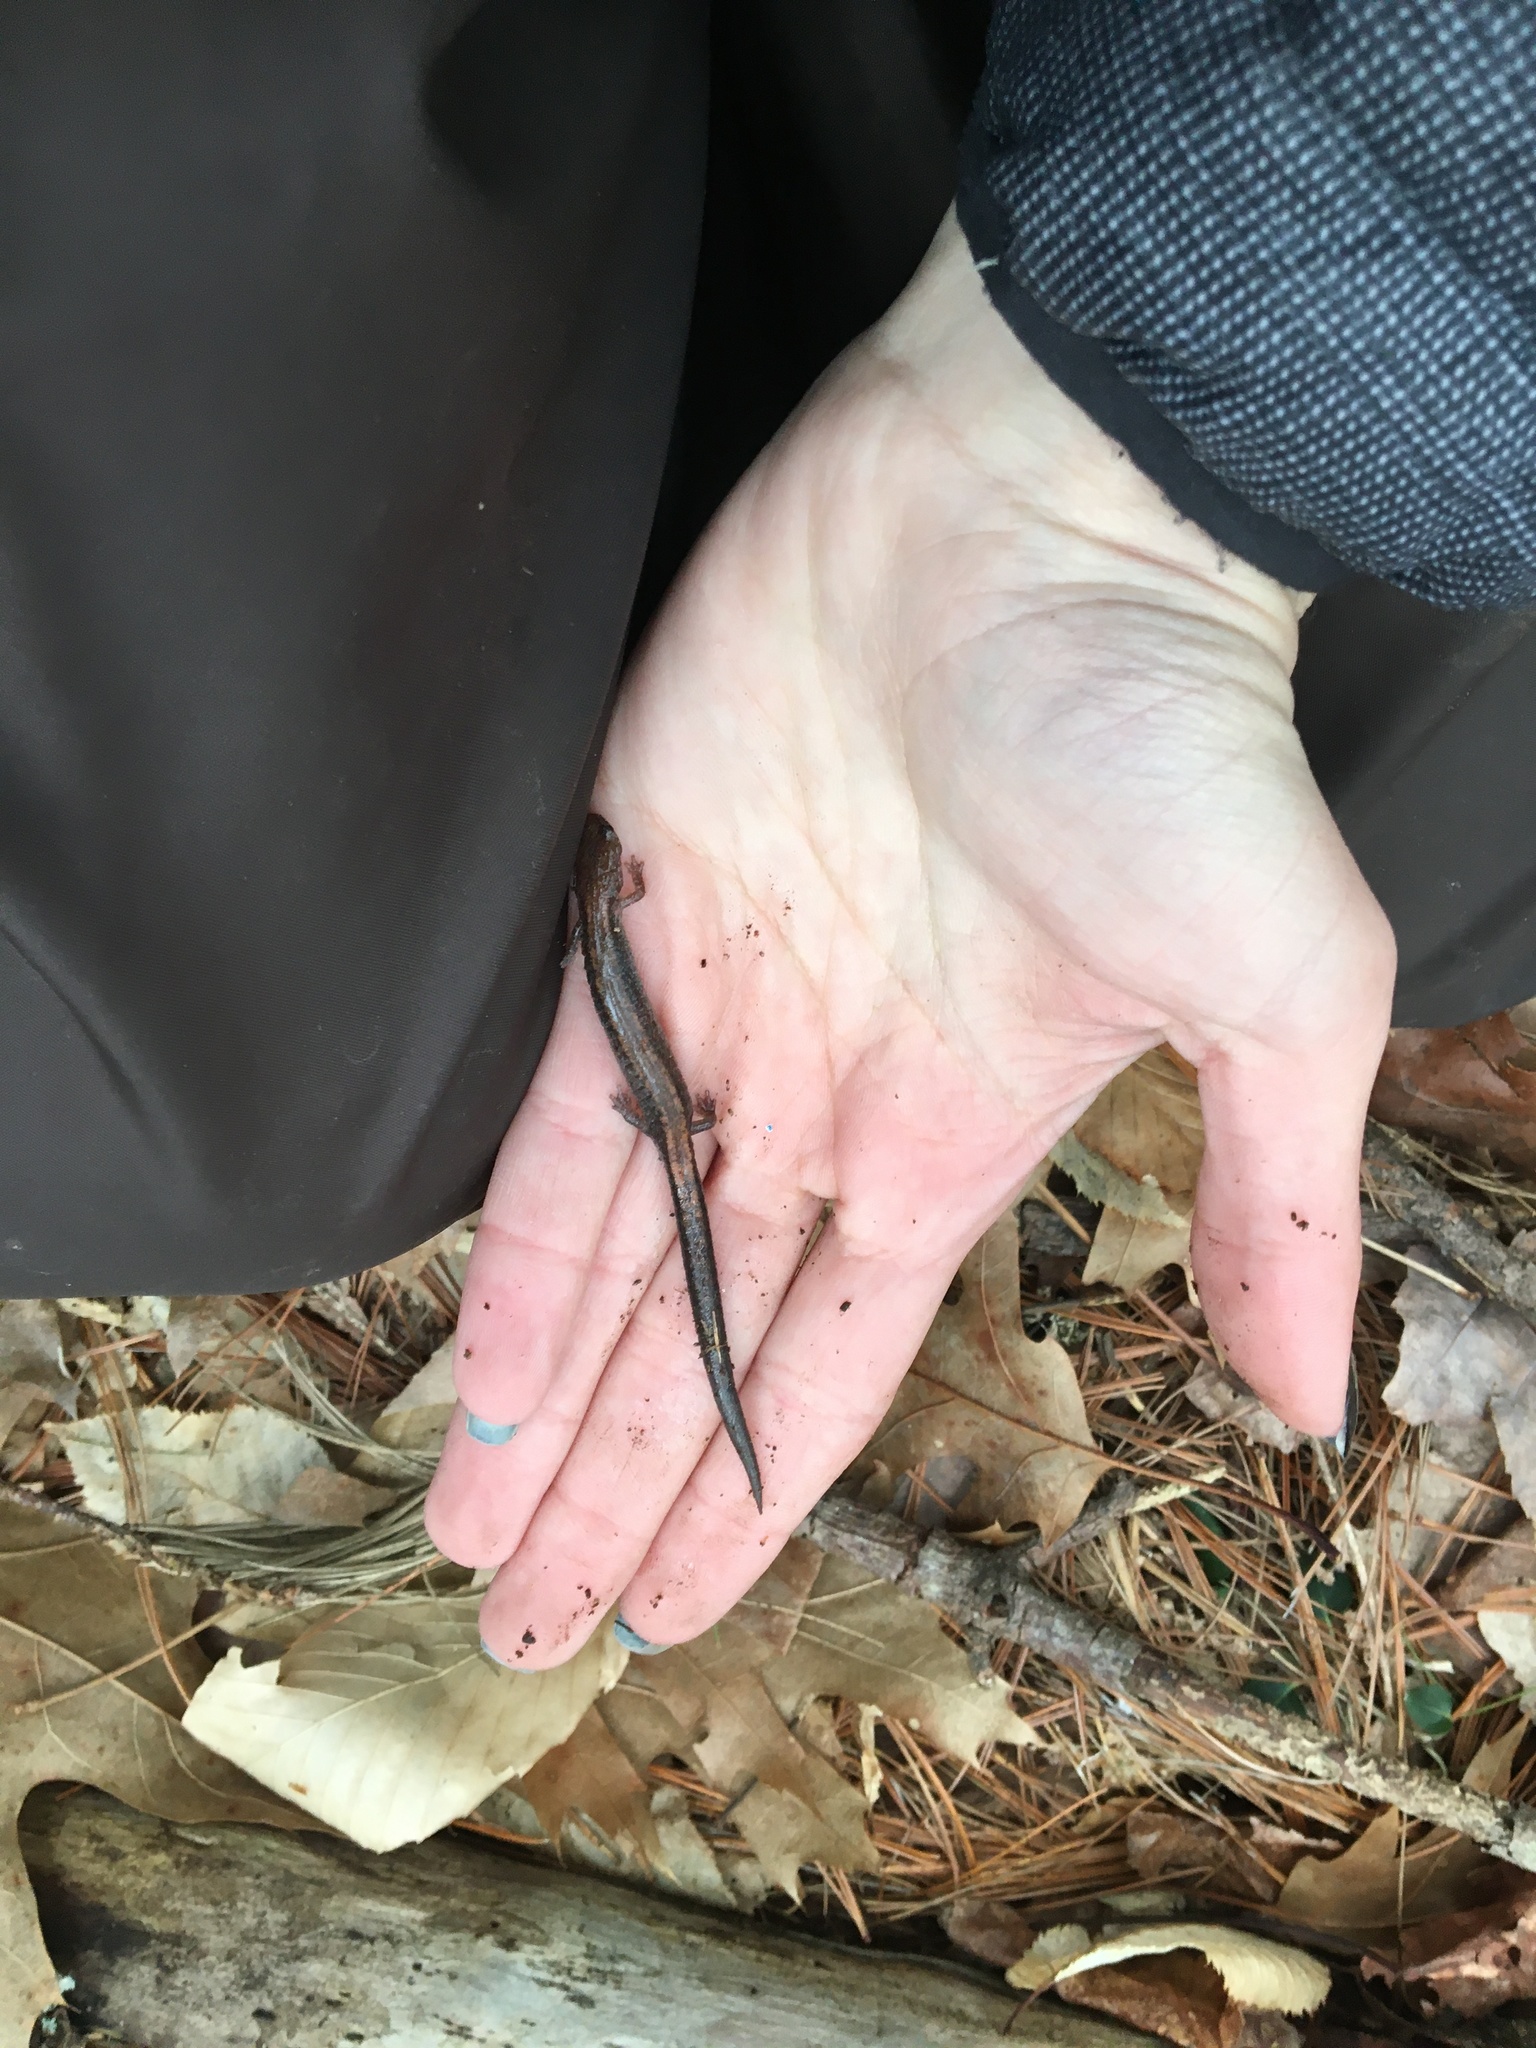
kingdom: Animalia
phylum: Chordata
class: Amphibia
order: Caudata
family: Plethodontidae
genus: Plethodon
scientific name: Plethodon cinereus
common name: Redback salamander
